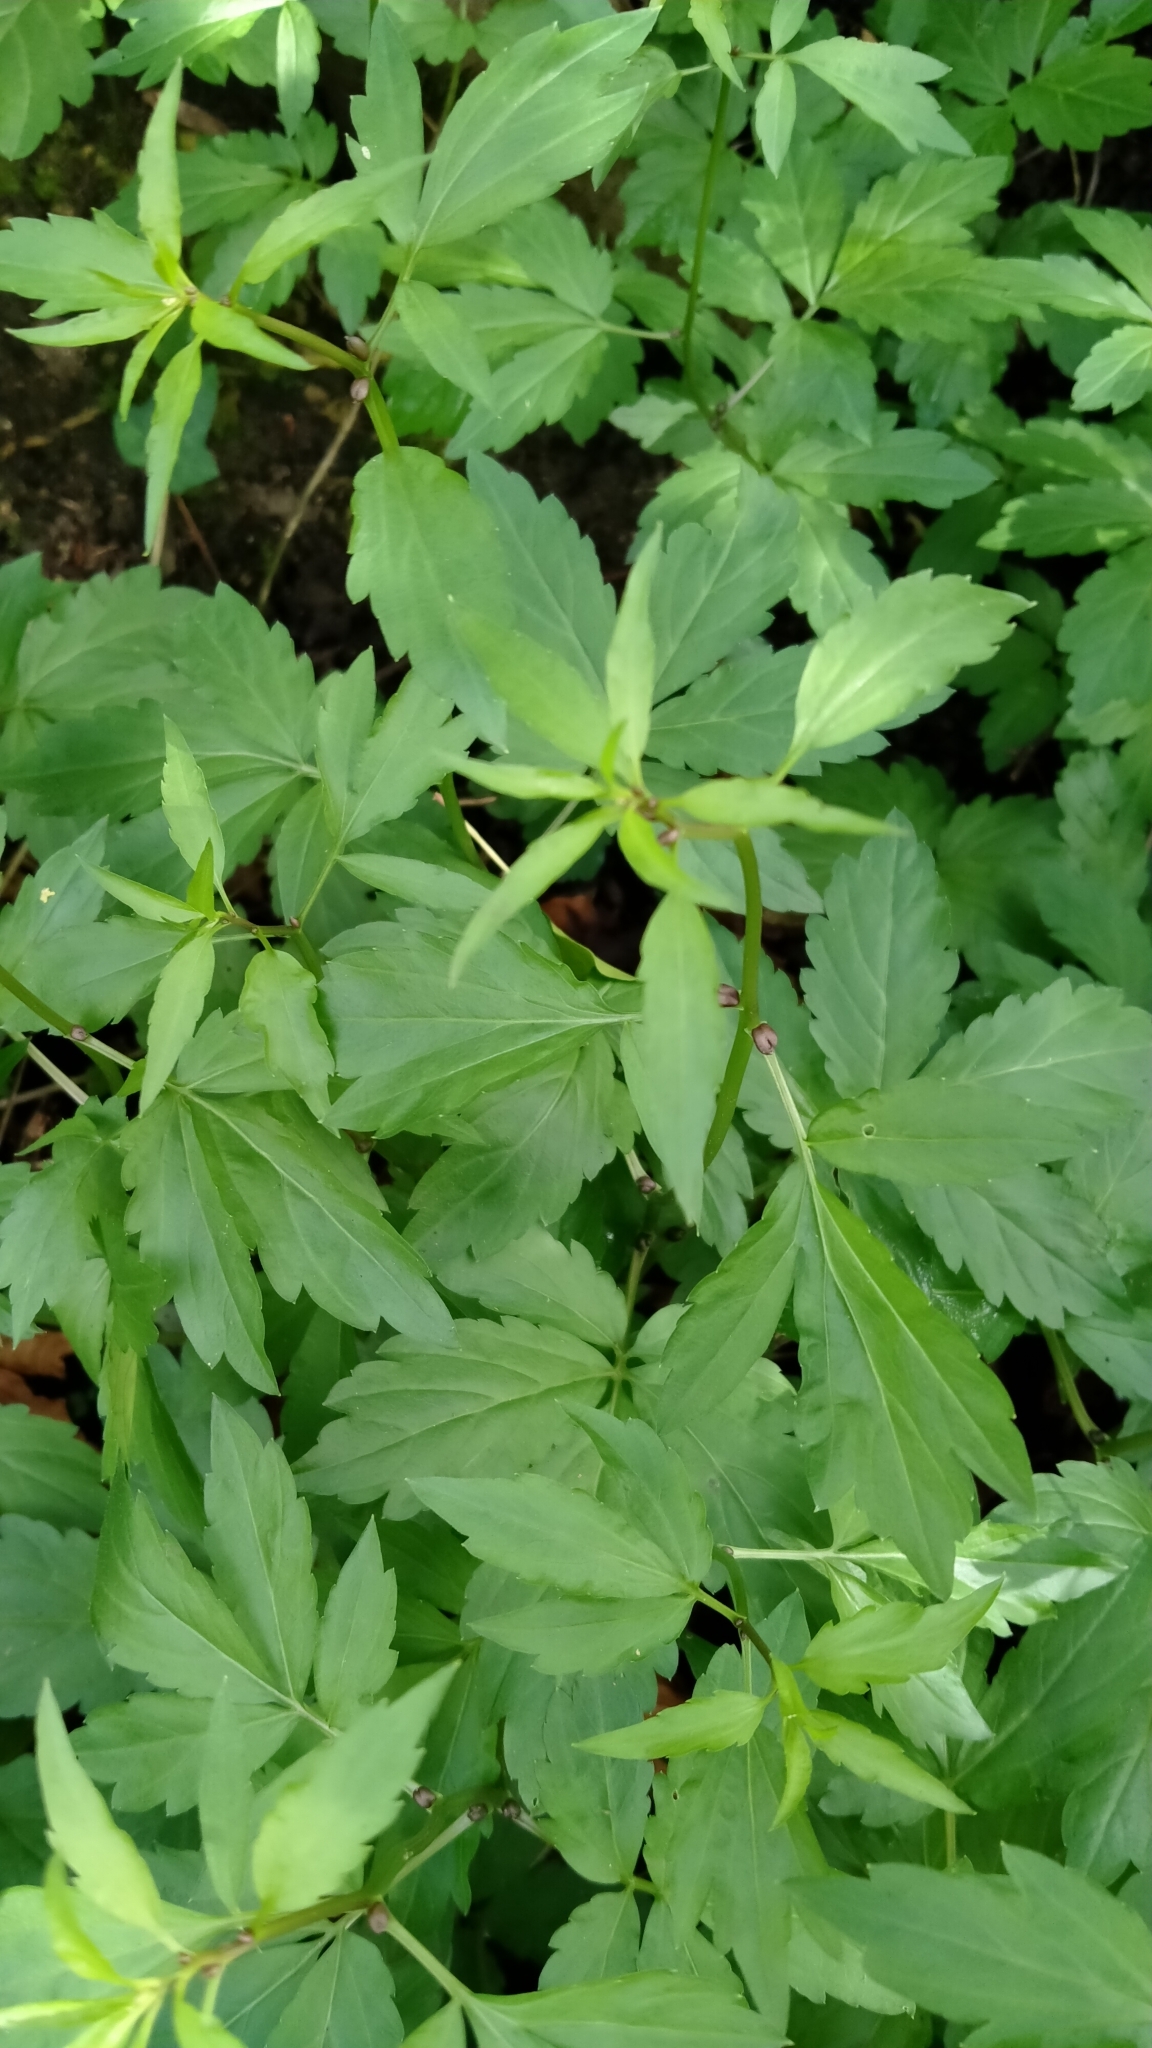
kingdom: Plantae
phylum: Tracheophyta
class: Magnoliopsida
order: Brassicales
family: Brassicaceae
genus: Cardamine
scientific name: Cardamine bulbifera
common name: Coralroot bittercress
